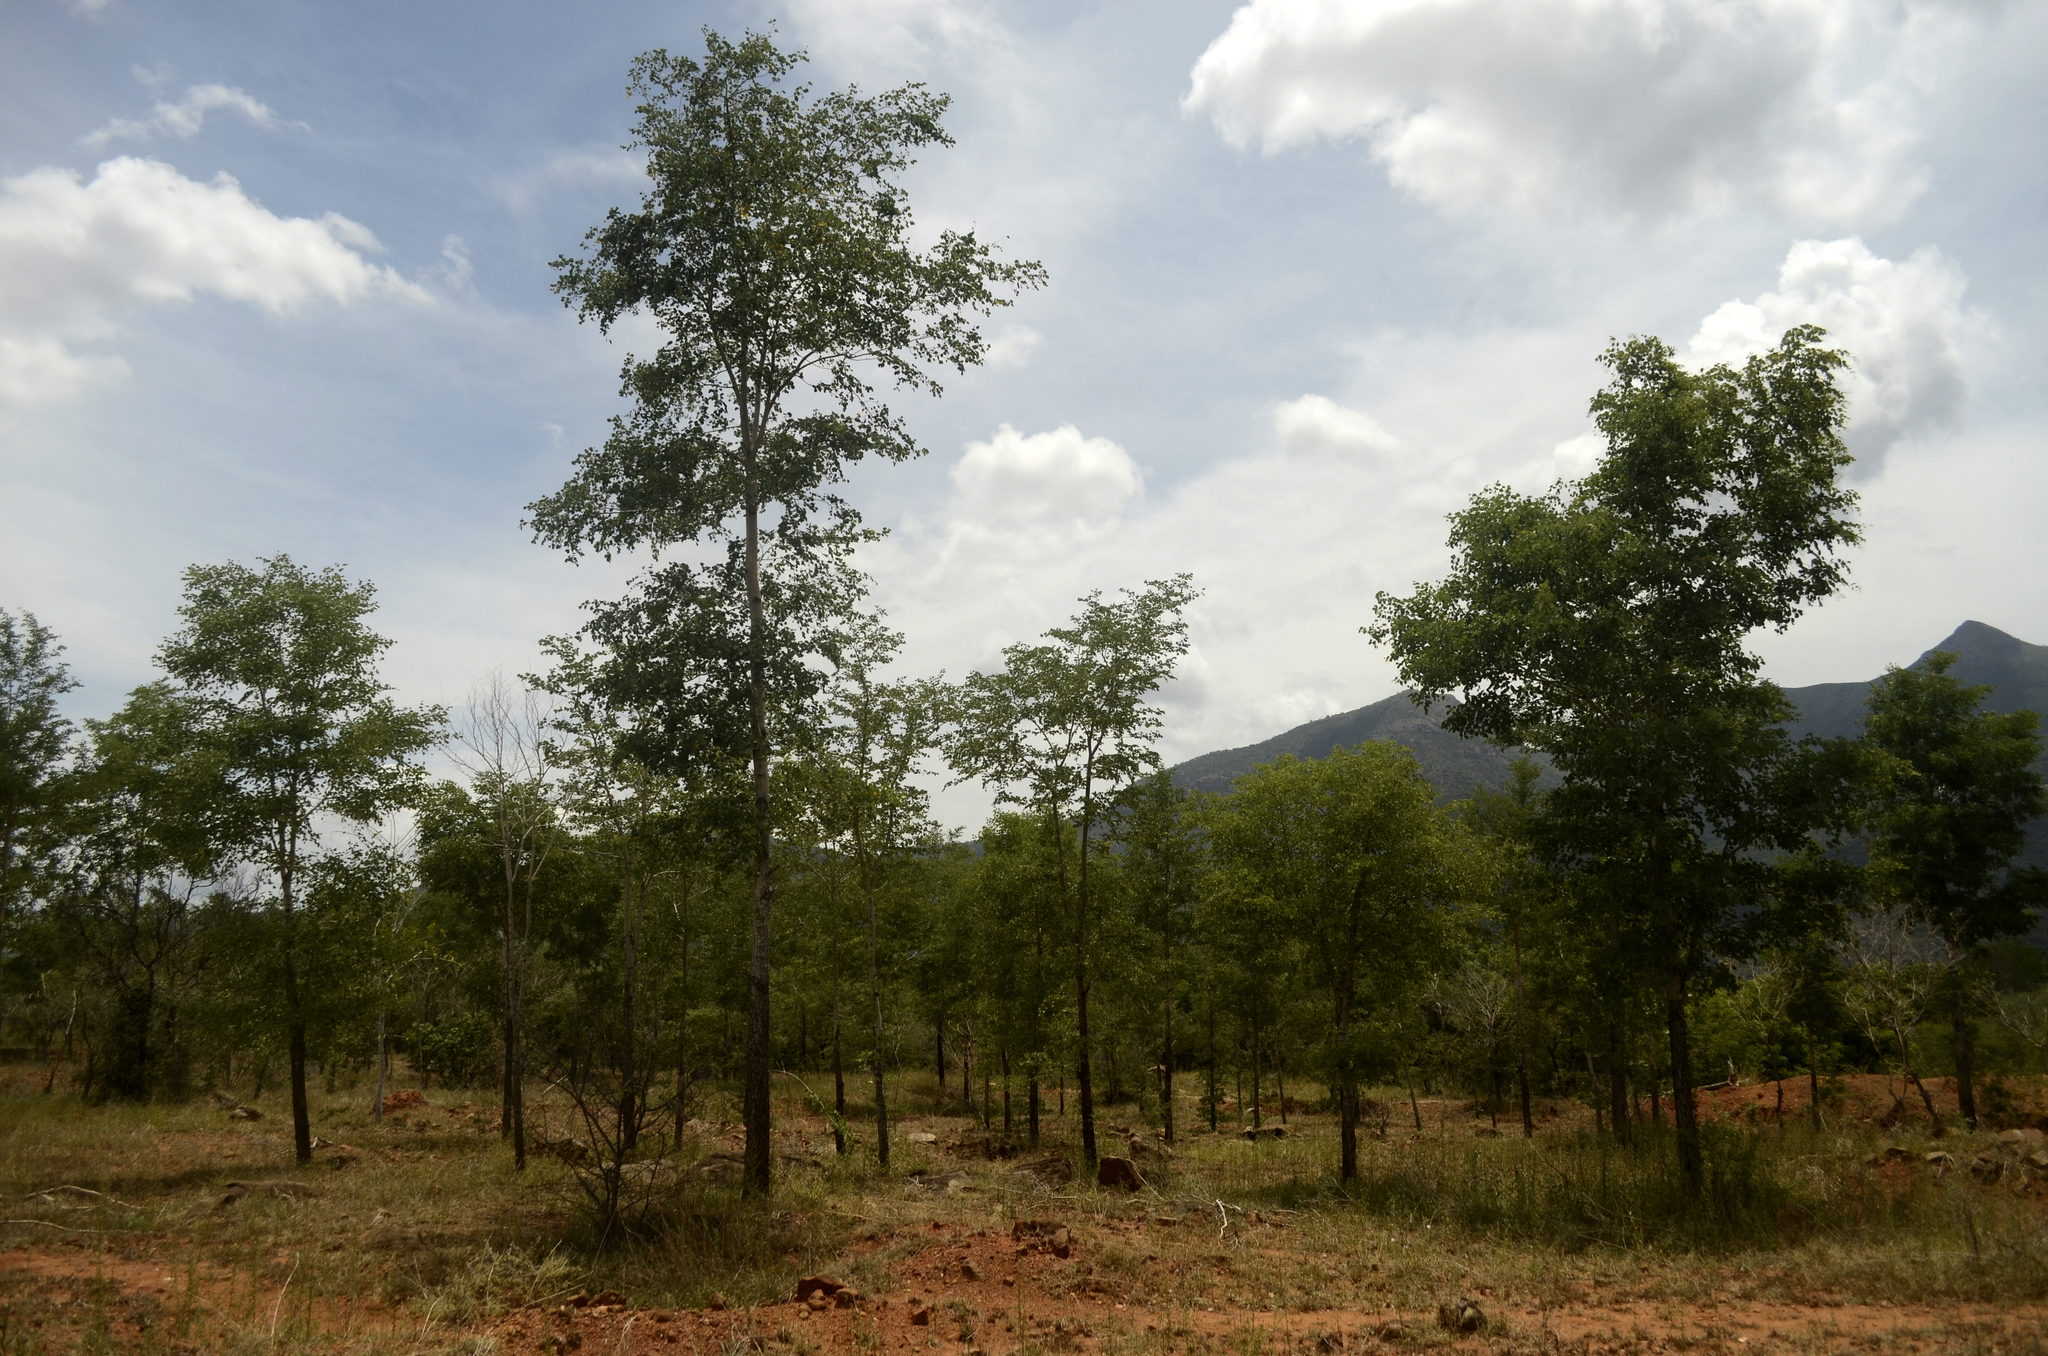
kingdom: Plantae
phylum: Tracheophyta
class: Magnoliopsida
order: Fabales
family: Fabaceae
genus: Hardwickia
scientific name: Hardwickia binata
